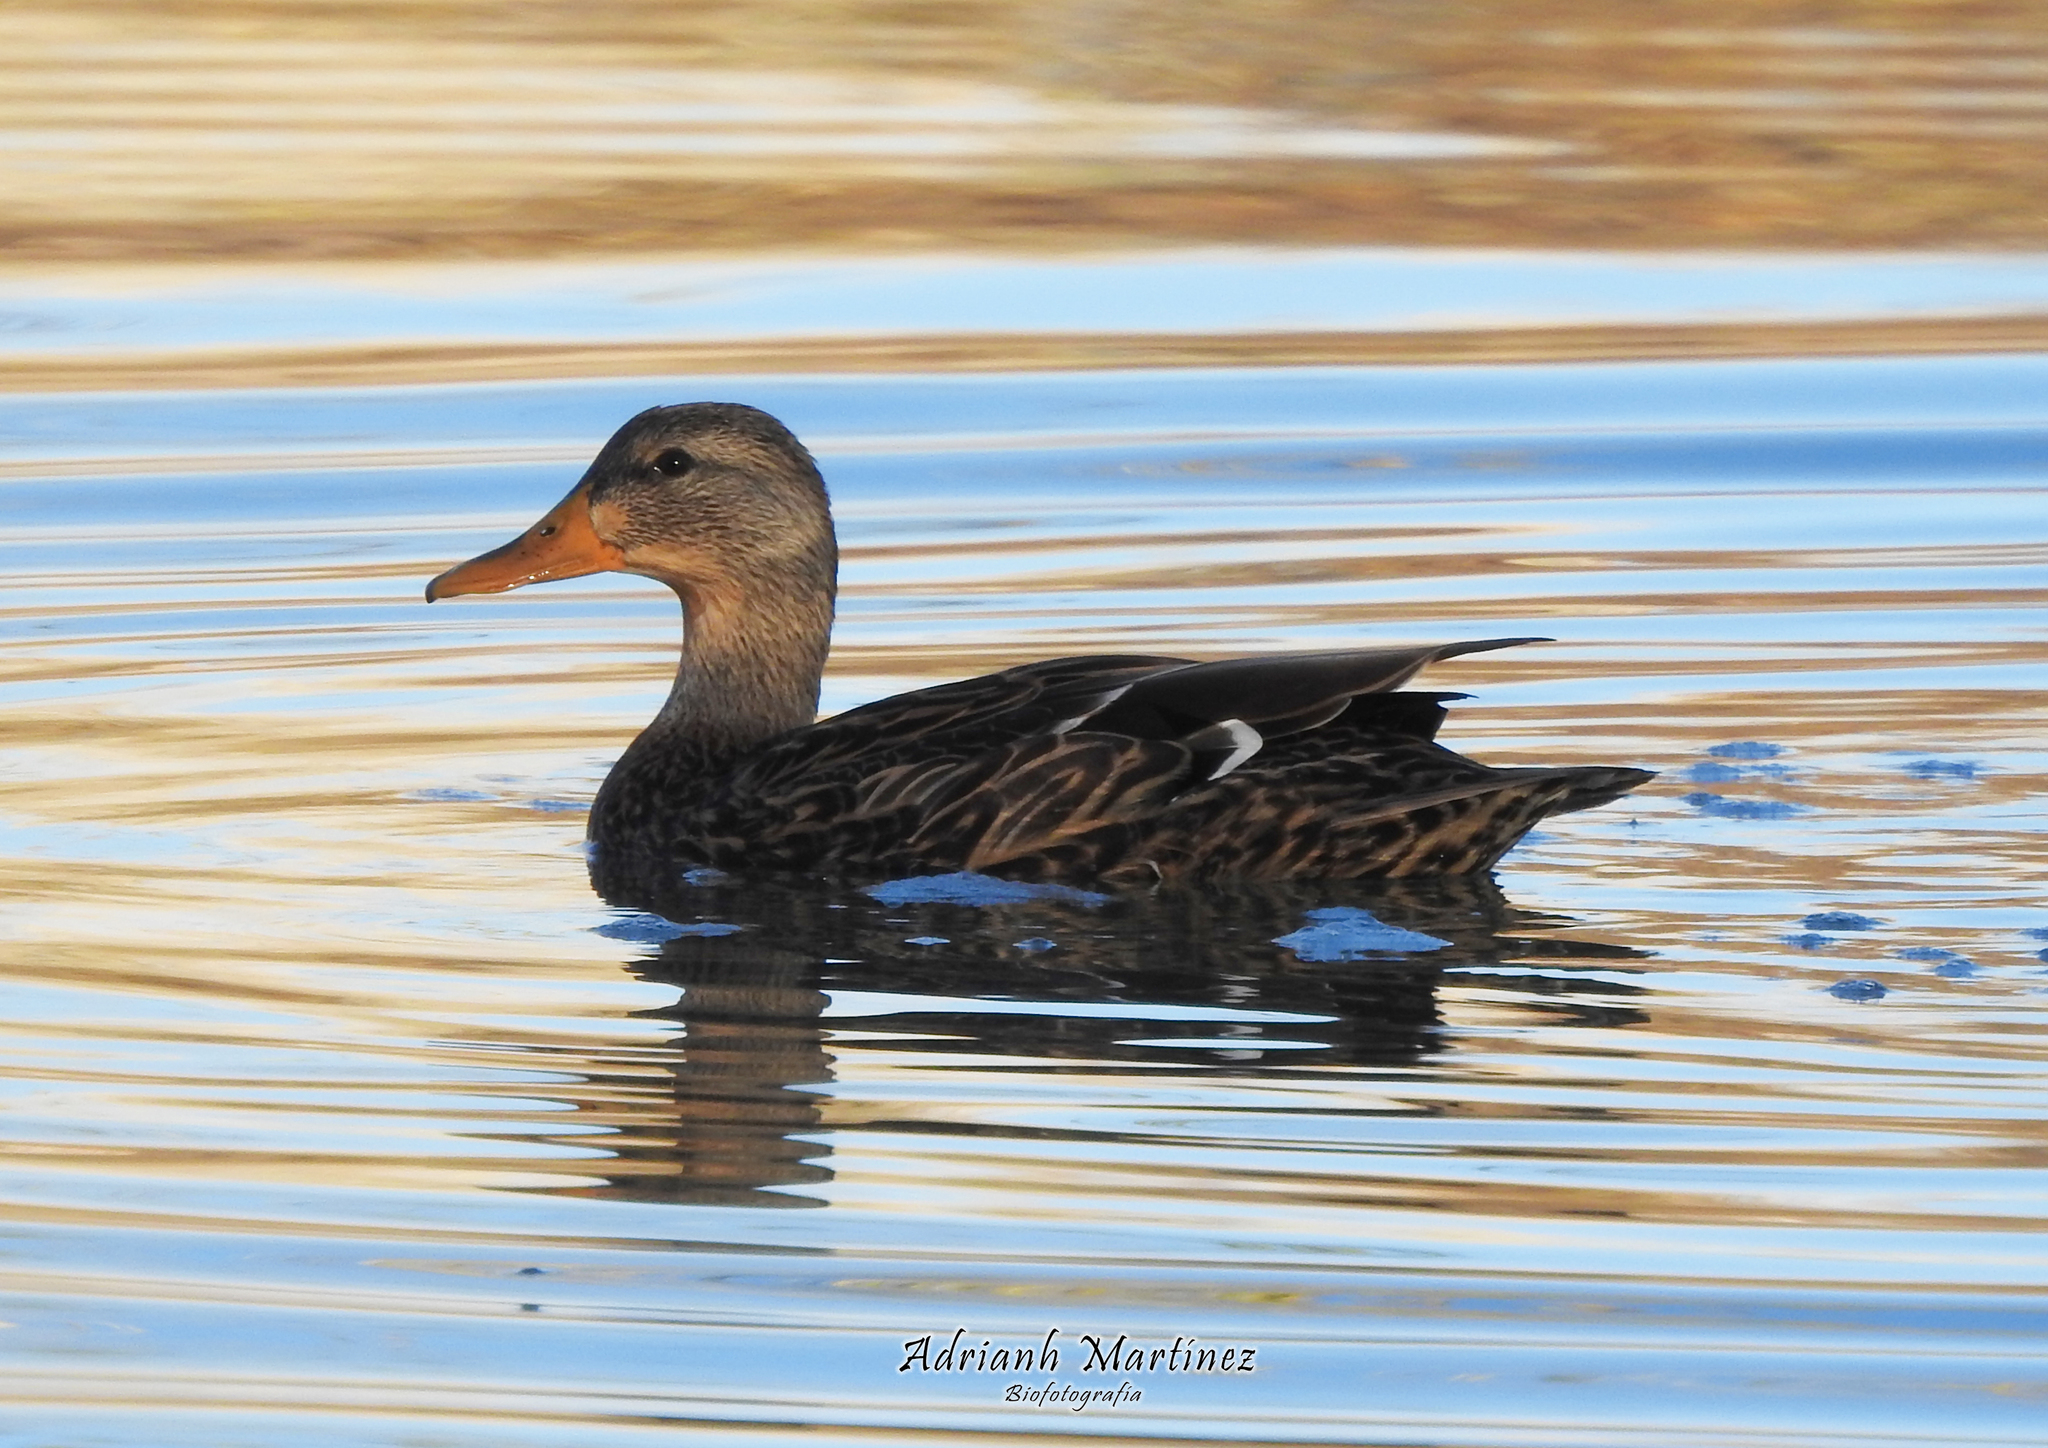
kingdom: Animalia
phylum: Chordata
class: Aves
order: Anseriformes
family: Anatidae
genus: Anas
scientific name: Anas diazi
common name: Mexican duck
